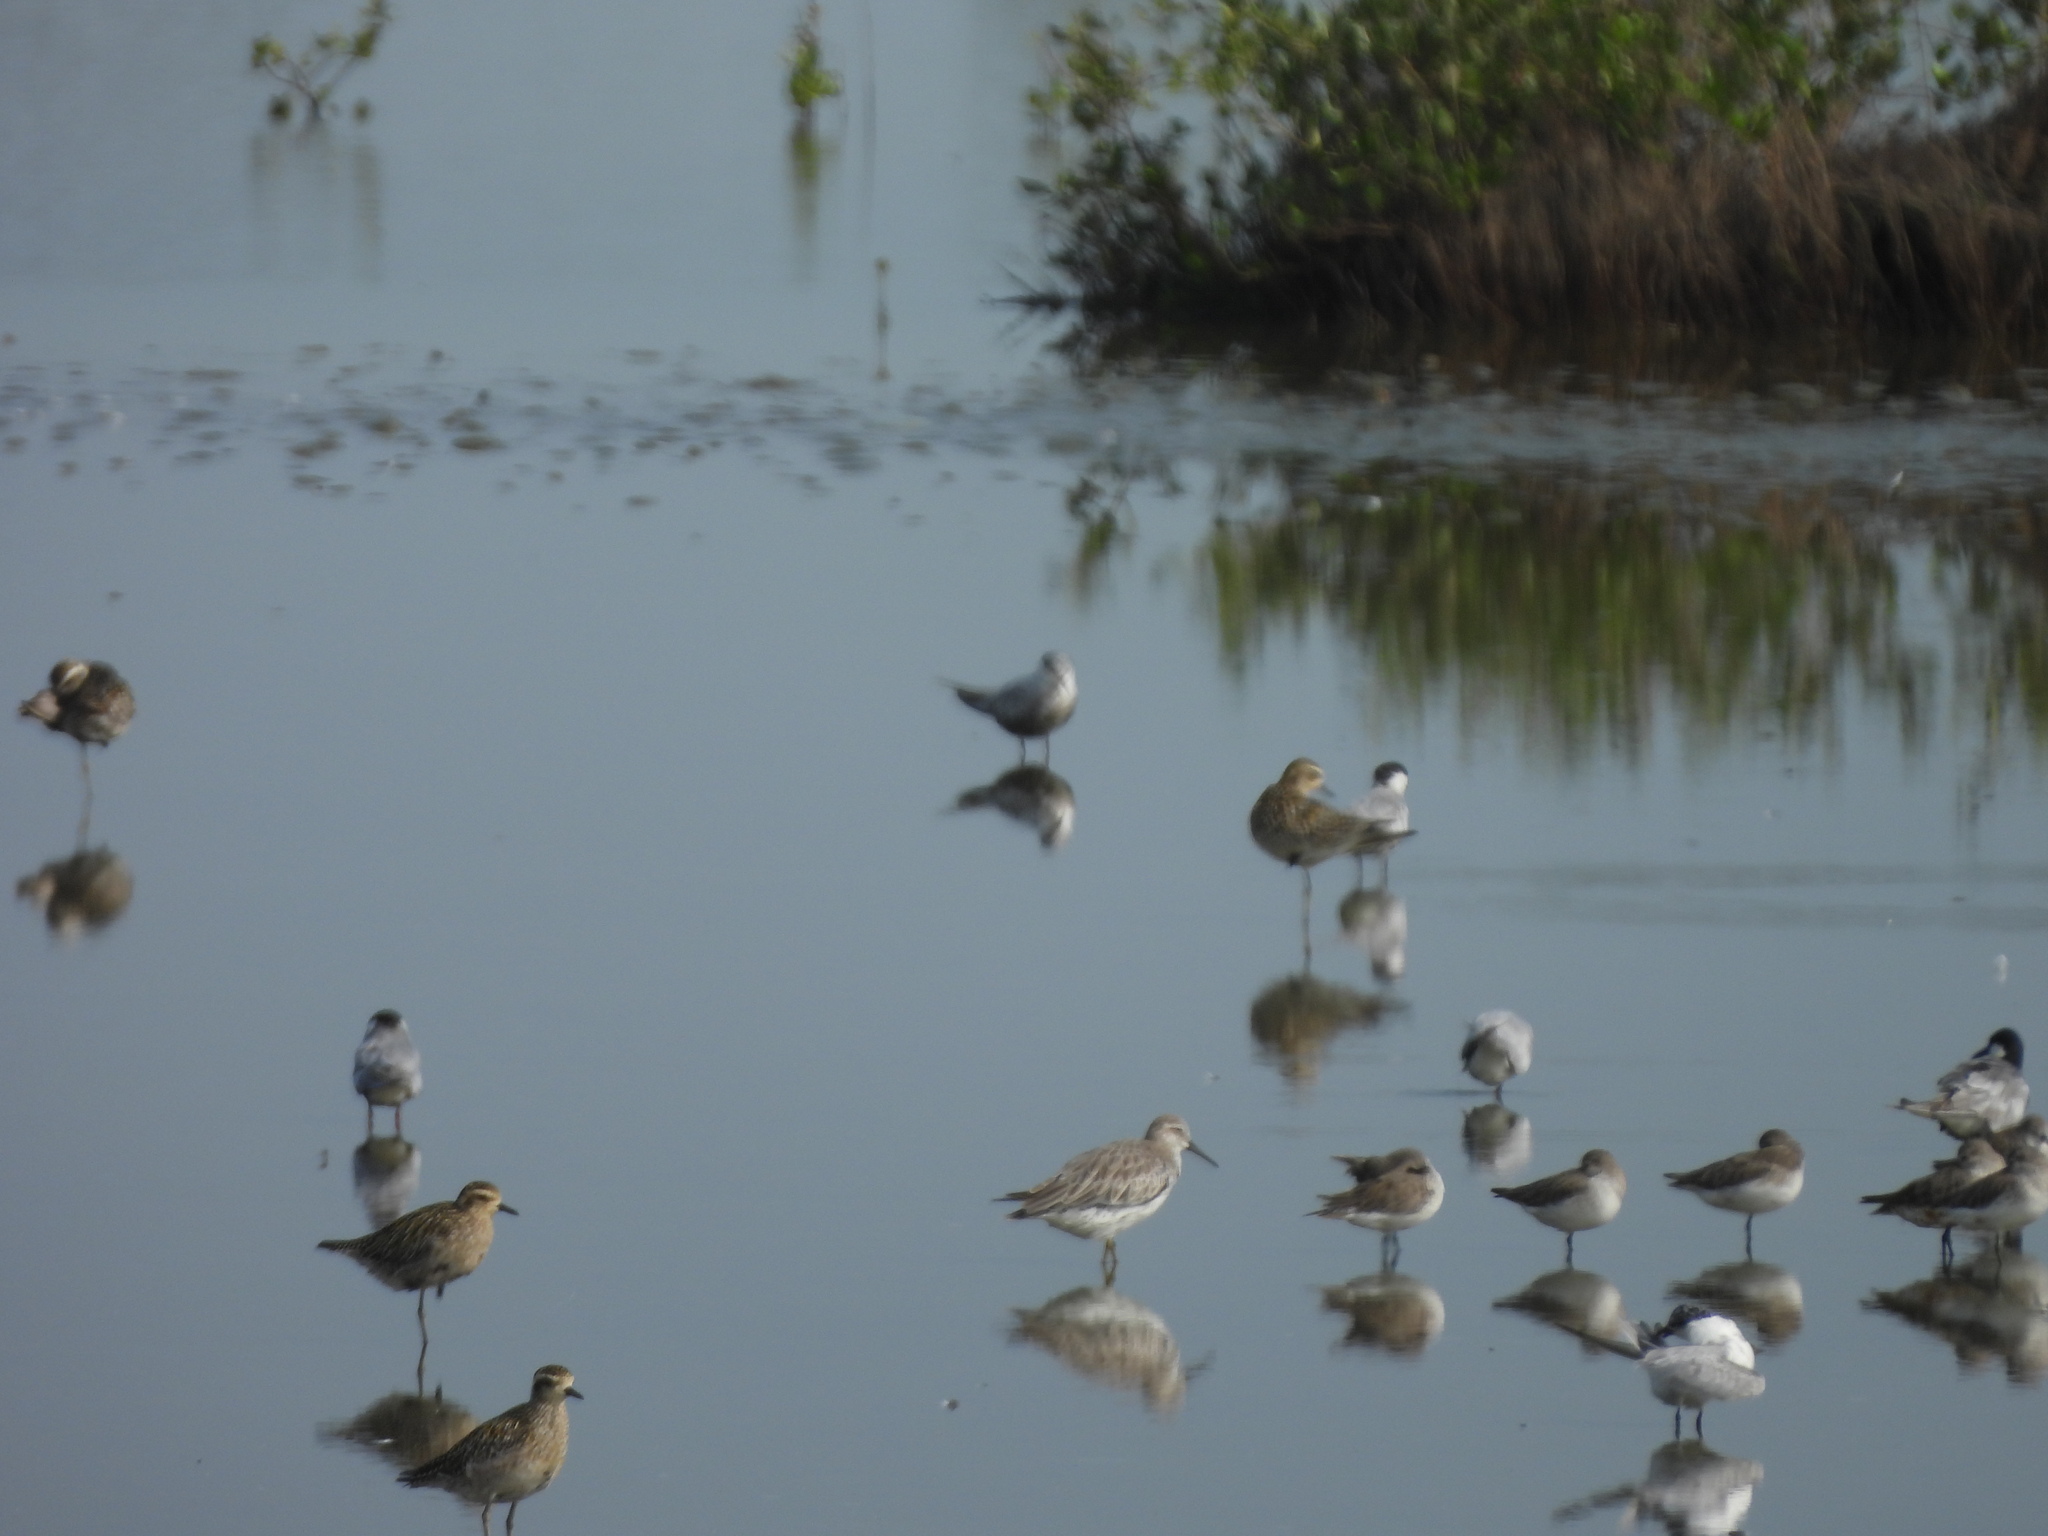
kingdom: Animalia
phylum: Chordata
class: Aves
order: Charadriiformes
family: Scolopacidae
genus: Calidris
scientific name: Calidris canutus
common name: Red knot
